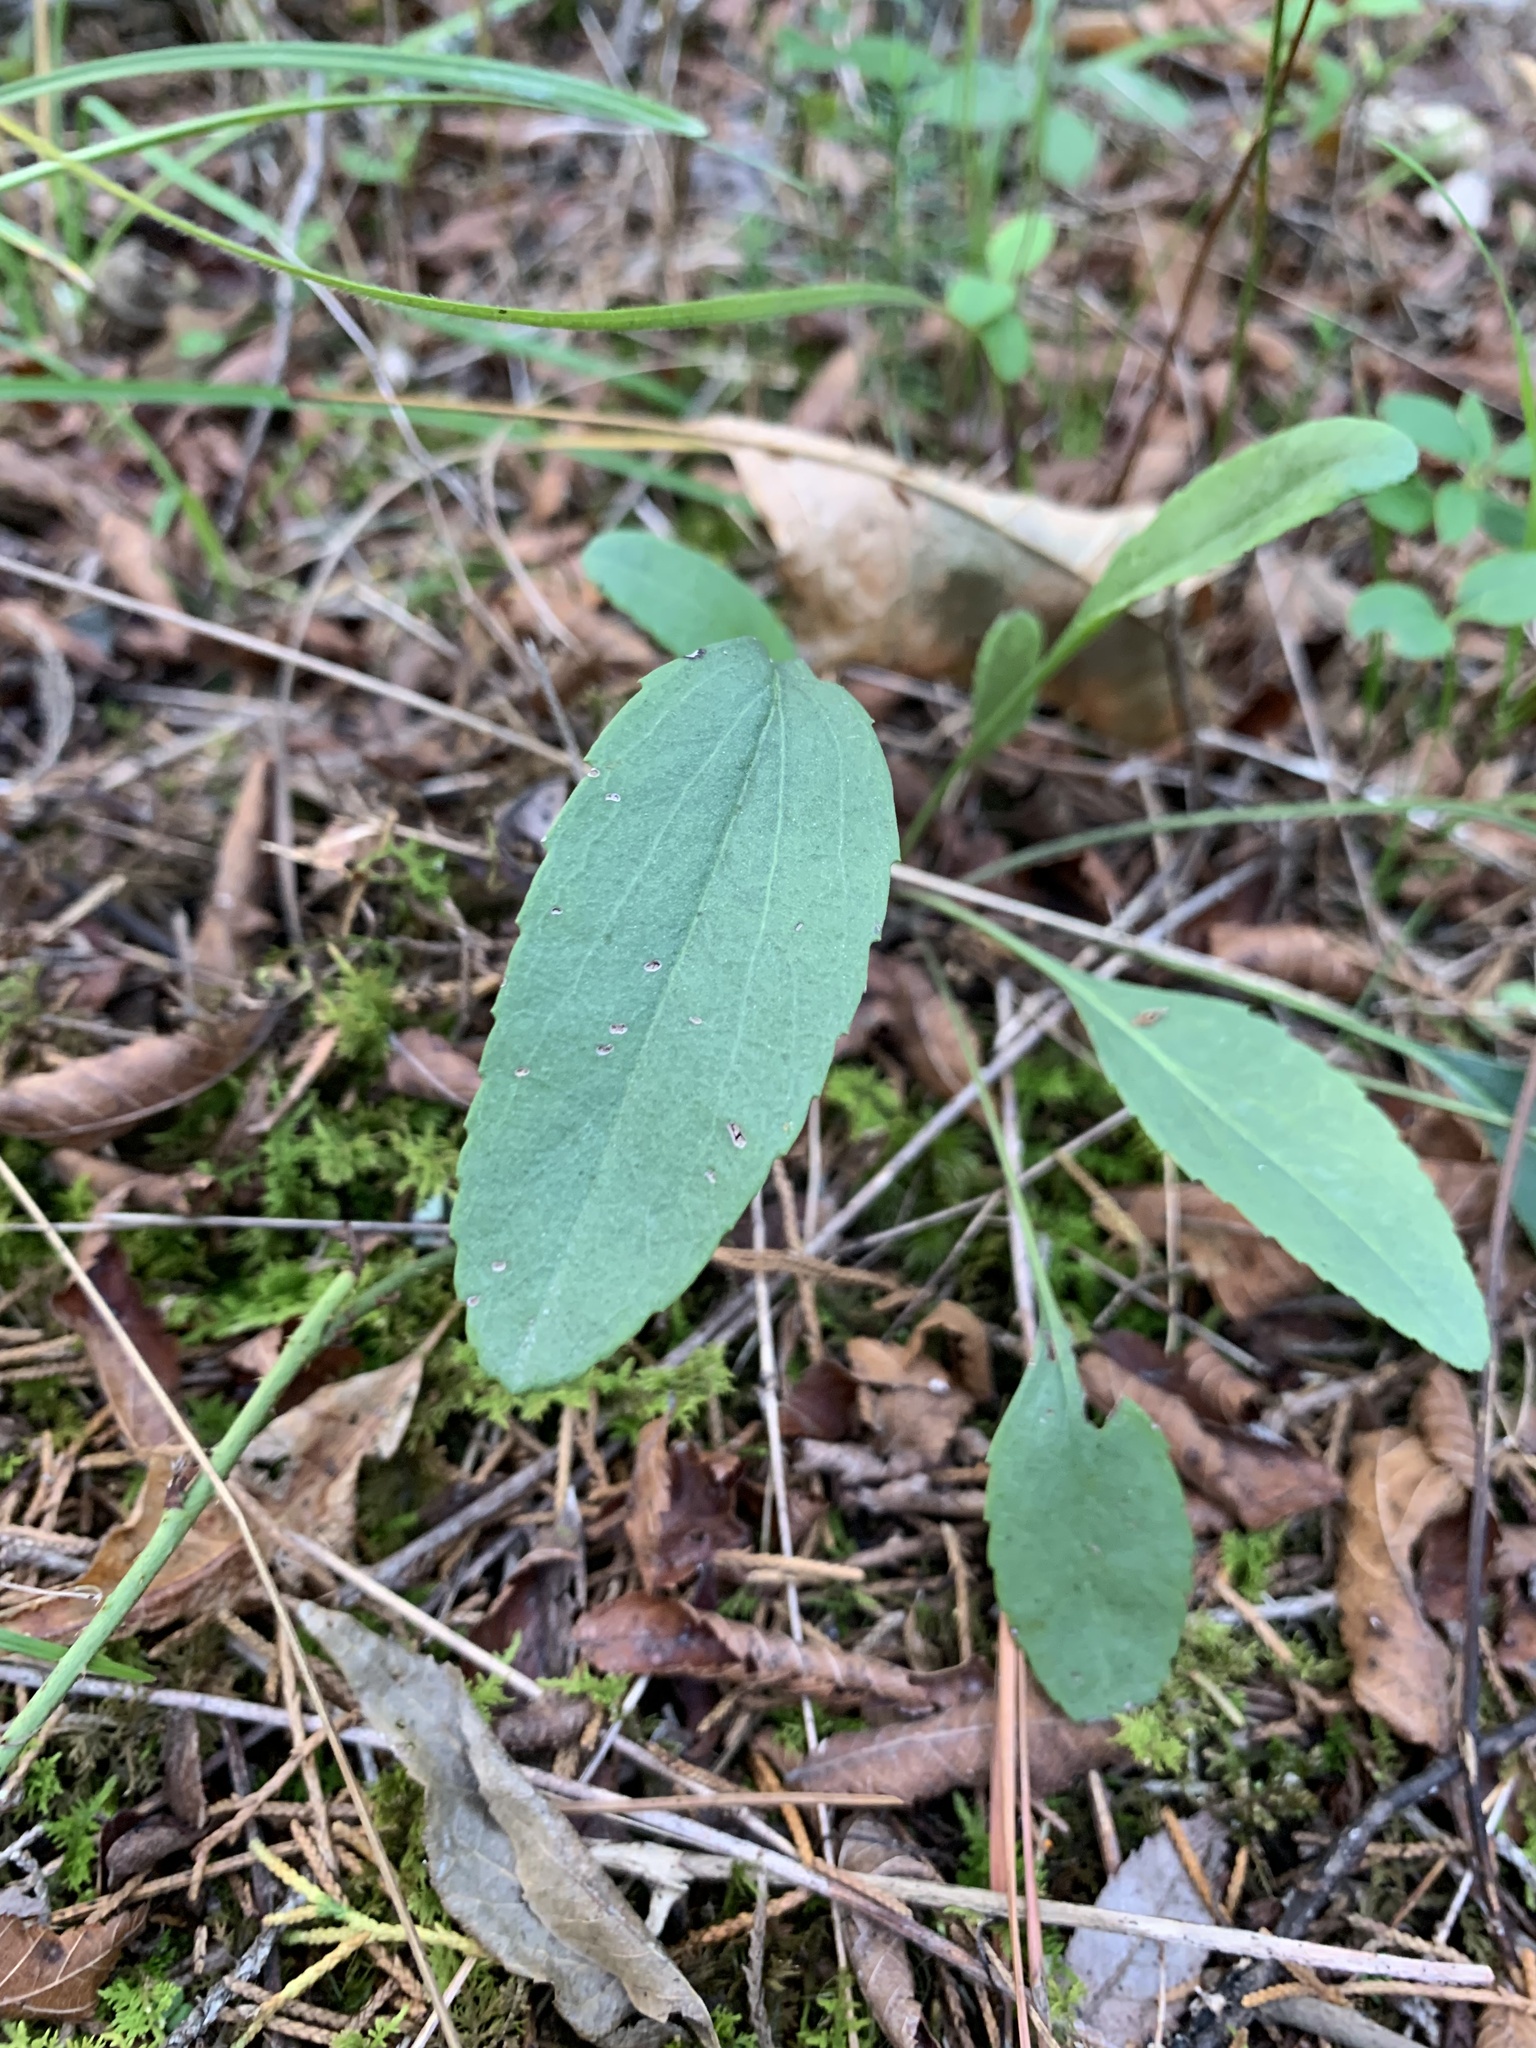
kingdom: Plantae
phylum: Tracheophyta
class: Magnoliopsida
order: Asterales
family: Asteraceae
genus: Packera
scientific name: Packera paupercula
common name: Balsam groundsel
